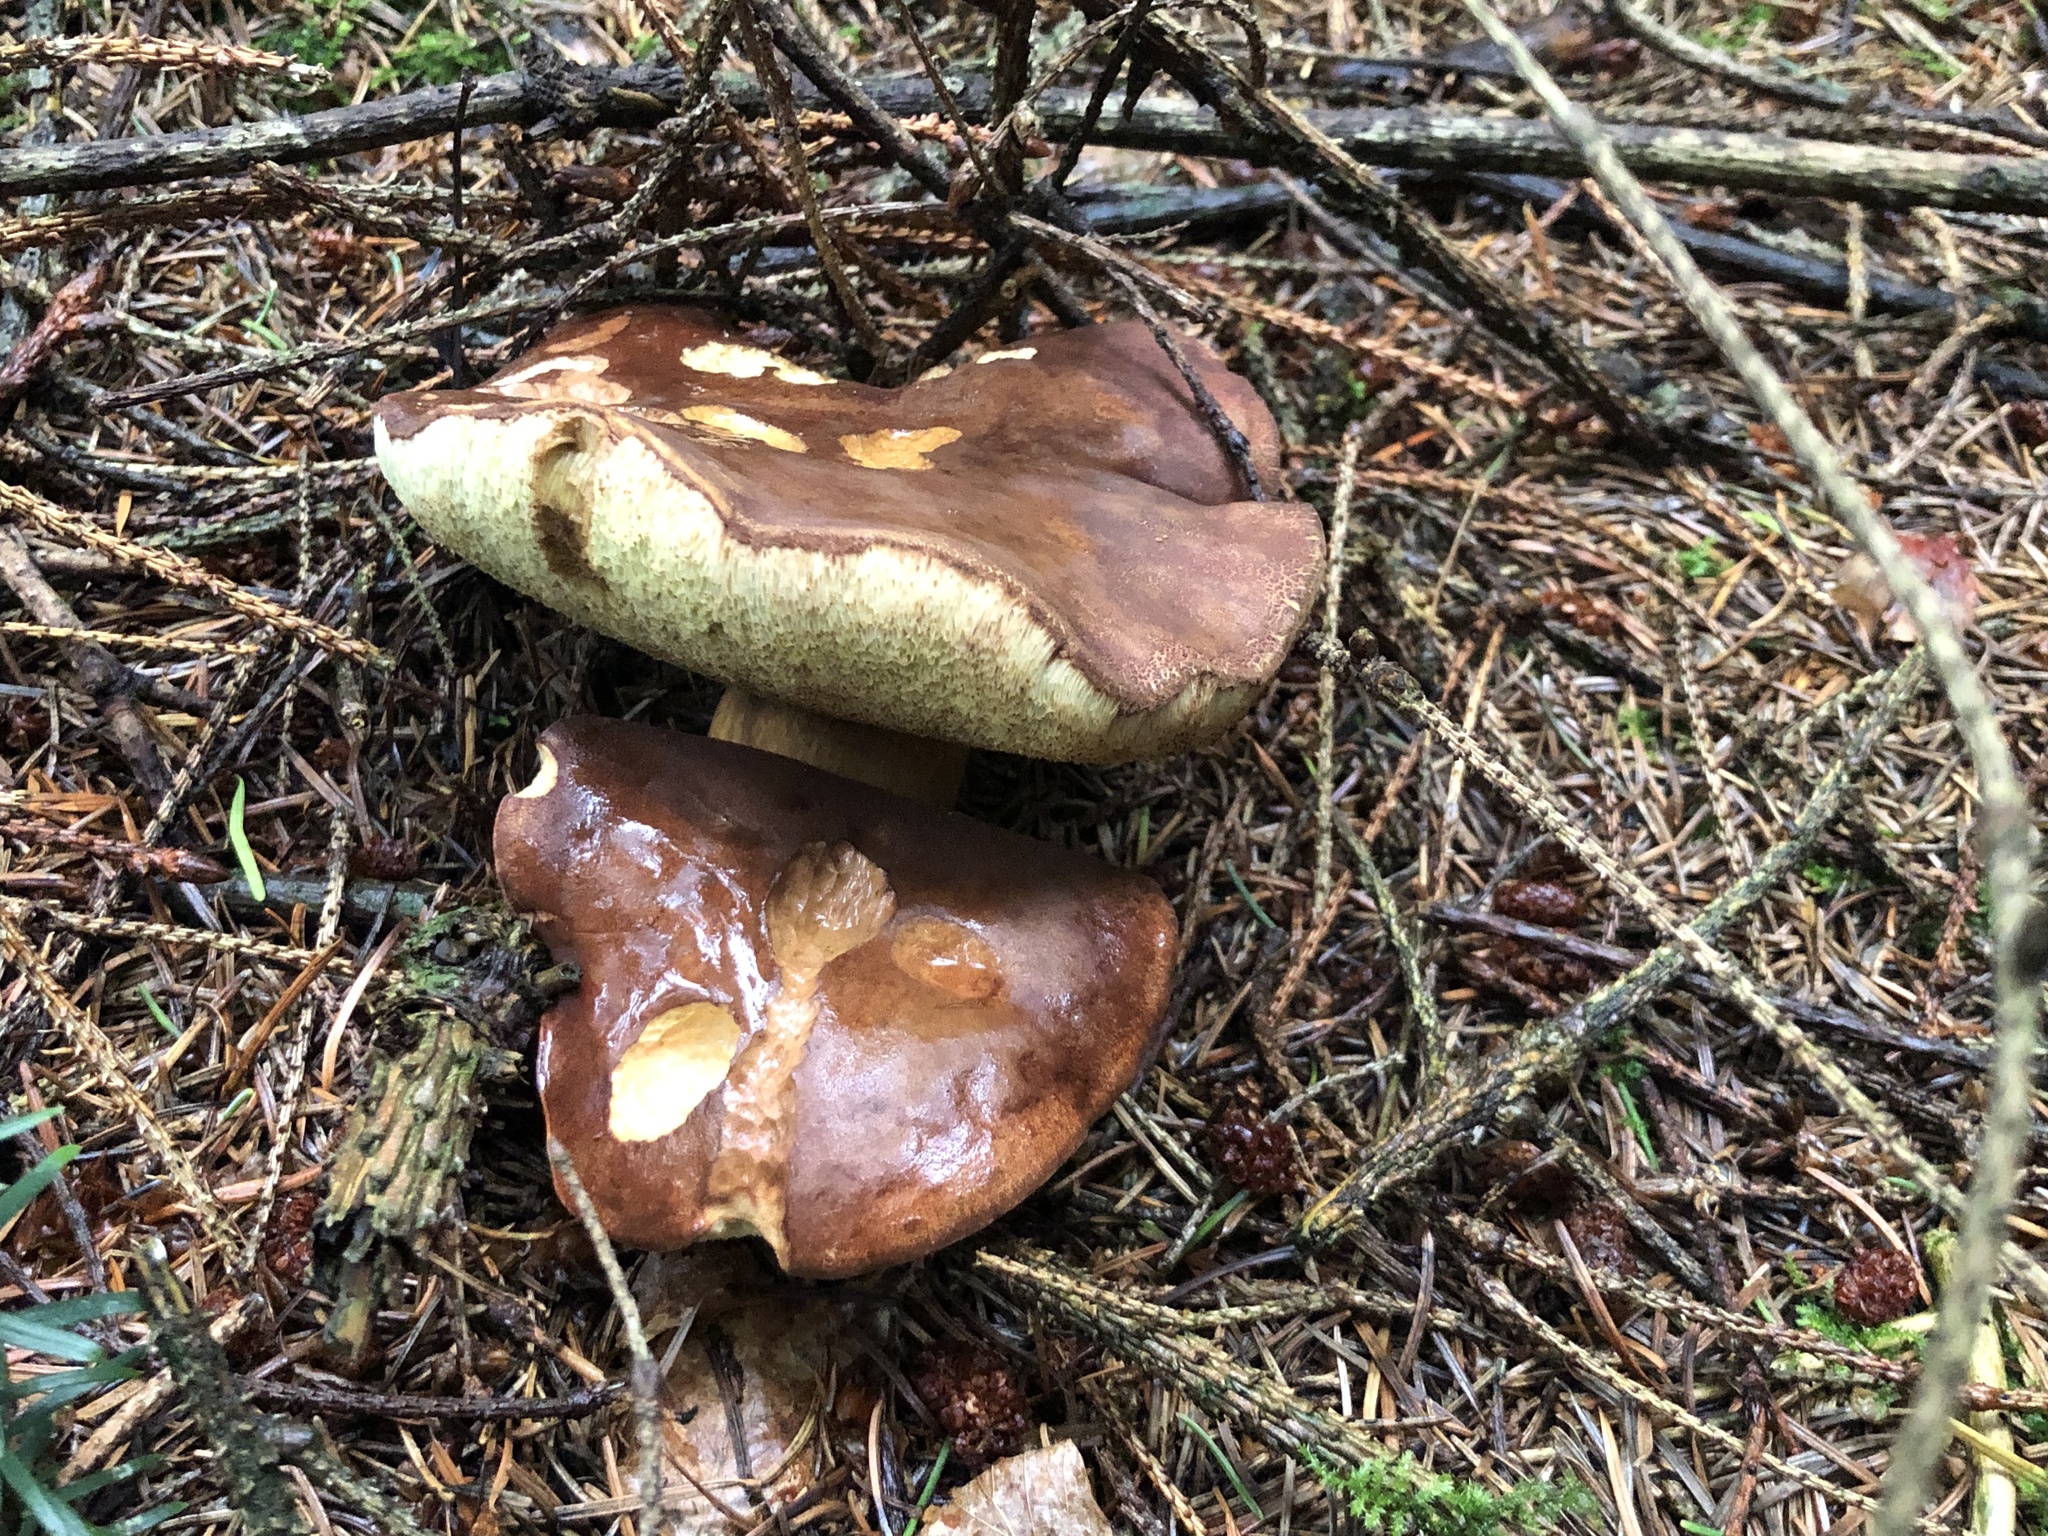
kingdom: Fungi
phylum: Basidiomycota
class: Agaricomycetes
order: Boletales
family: Boletaceae
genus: Imleria
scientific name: Imleria badia
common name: Bay bolete
